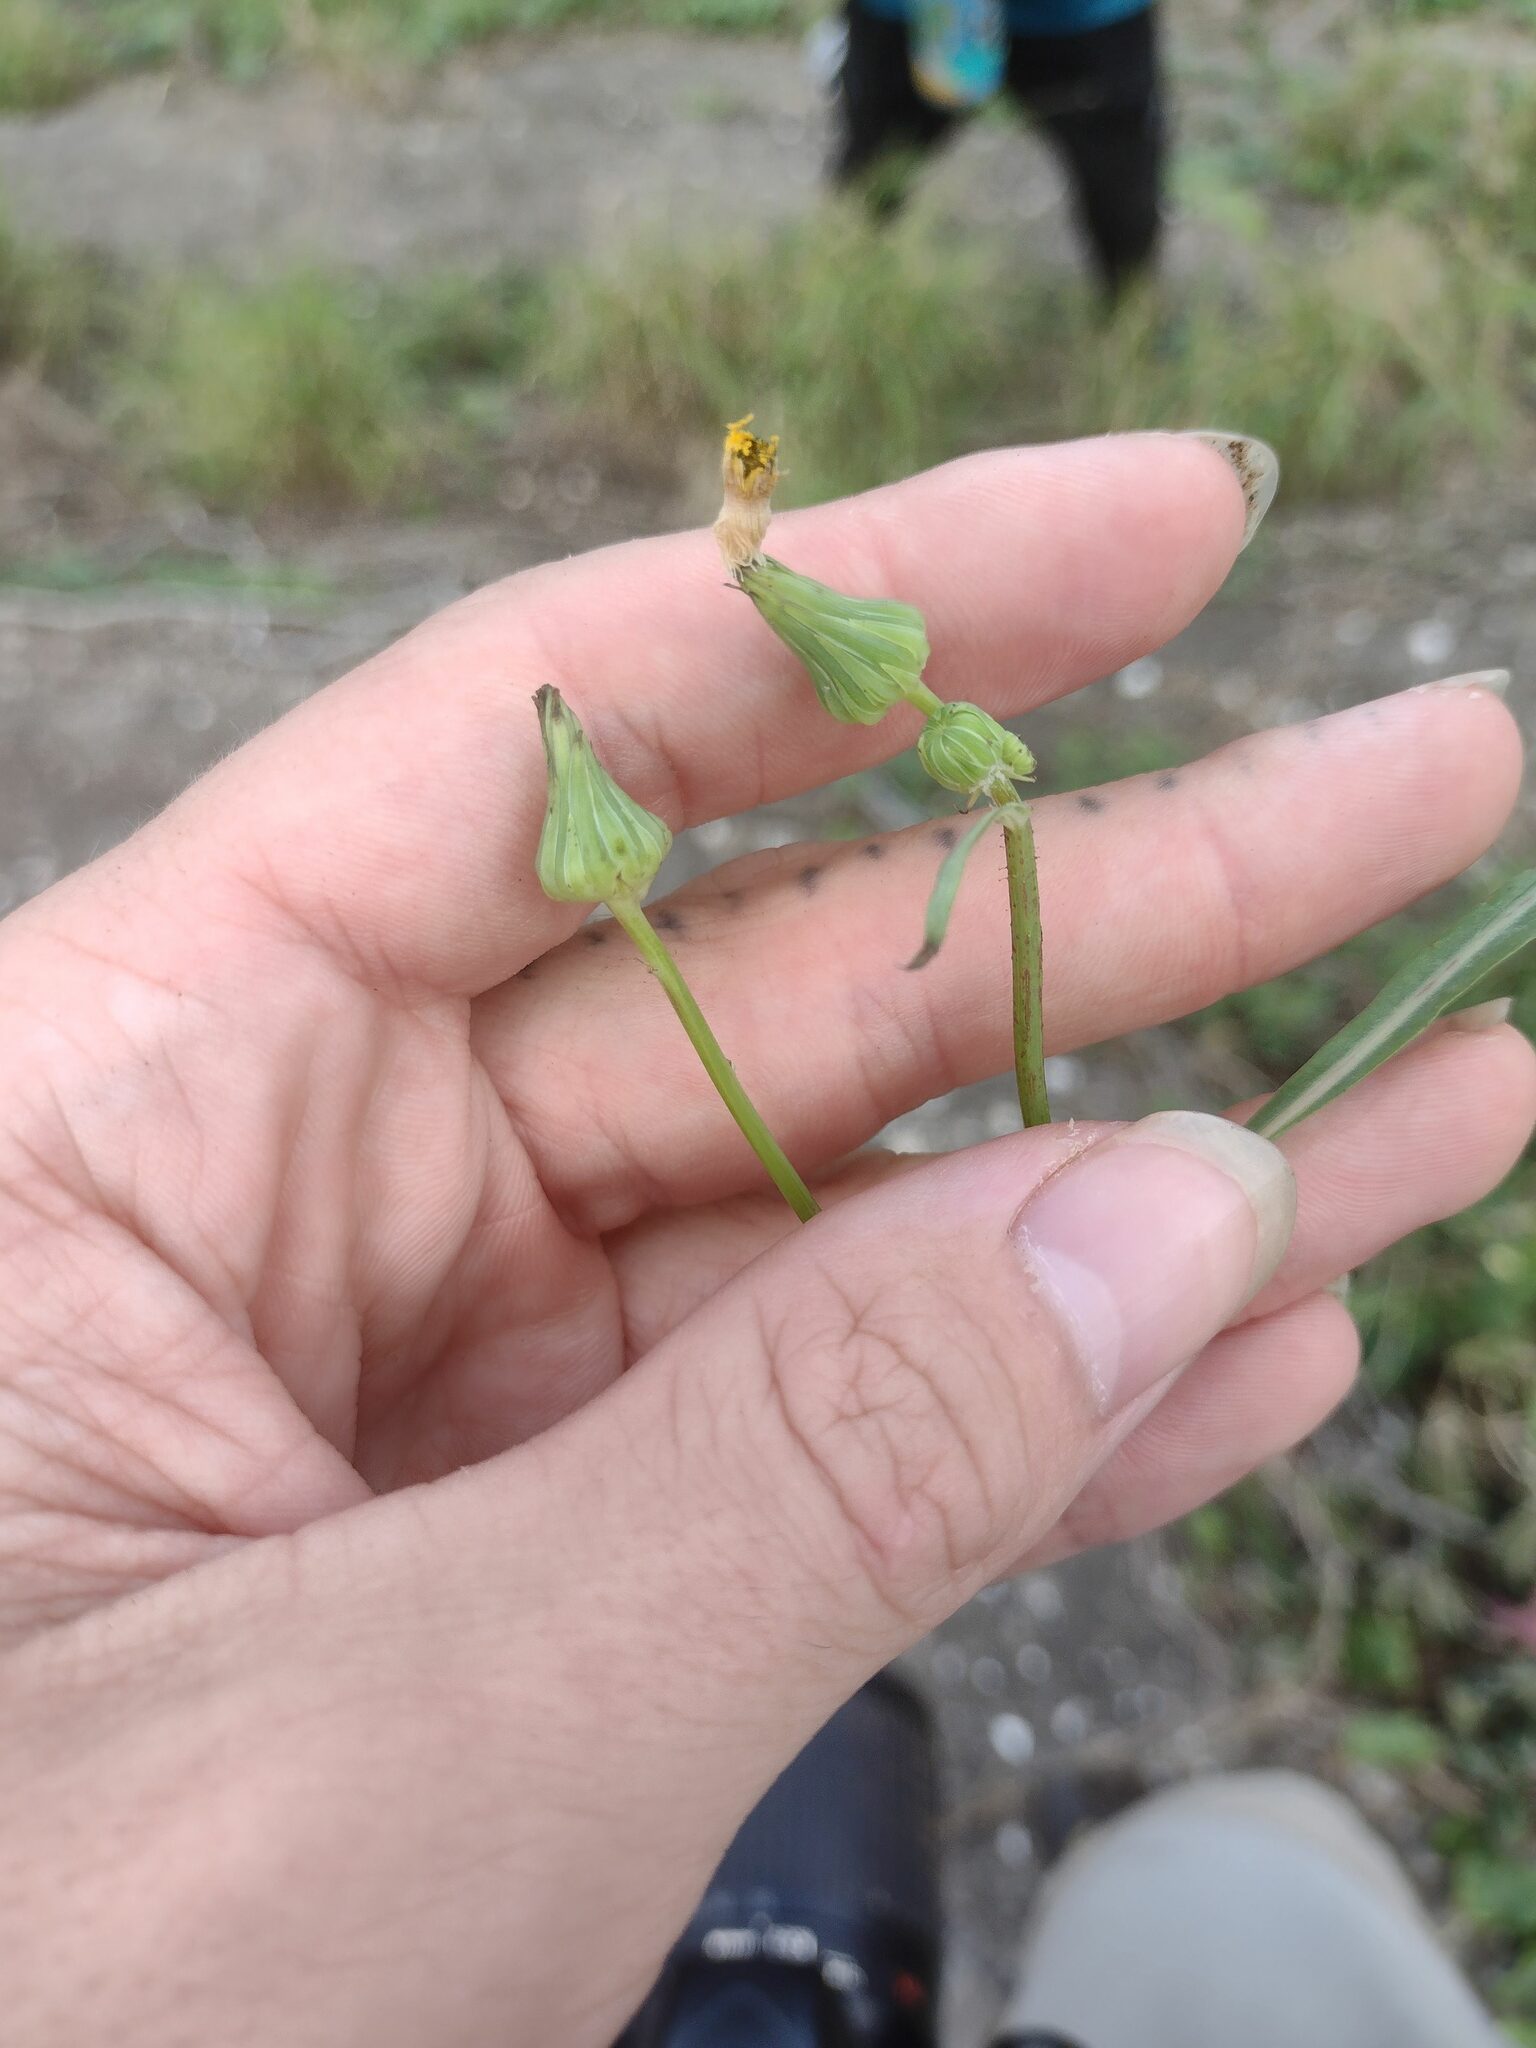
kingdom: Plantae
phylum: Tracheophyta
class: Magnoliopsida
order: Asterales
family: Asteraceae
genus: Sonchus
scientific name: Sonchus oleraceus
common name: Common sowthistle
